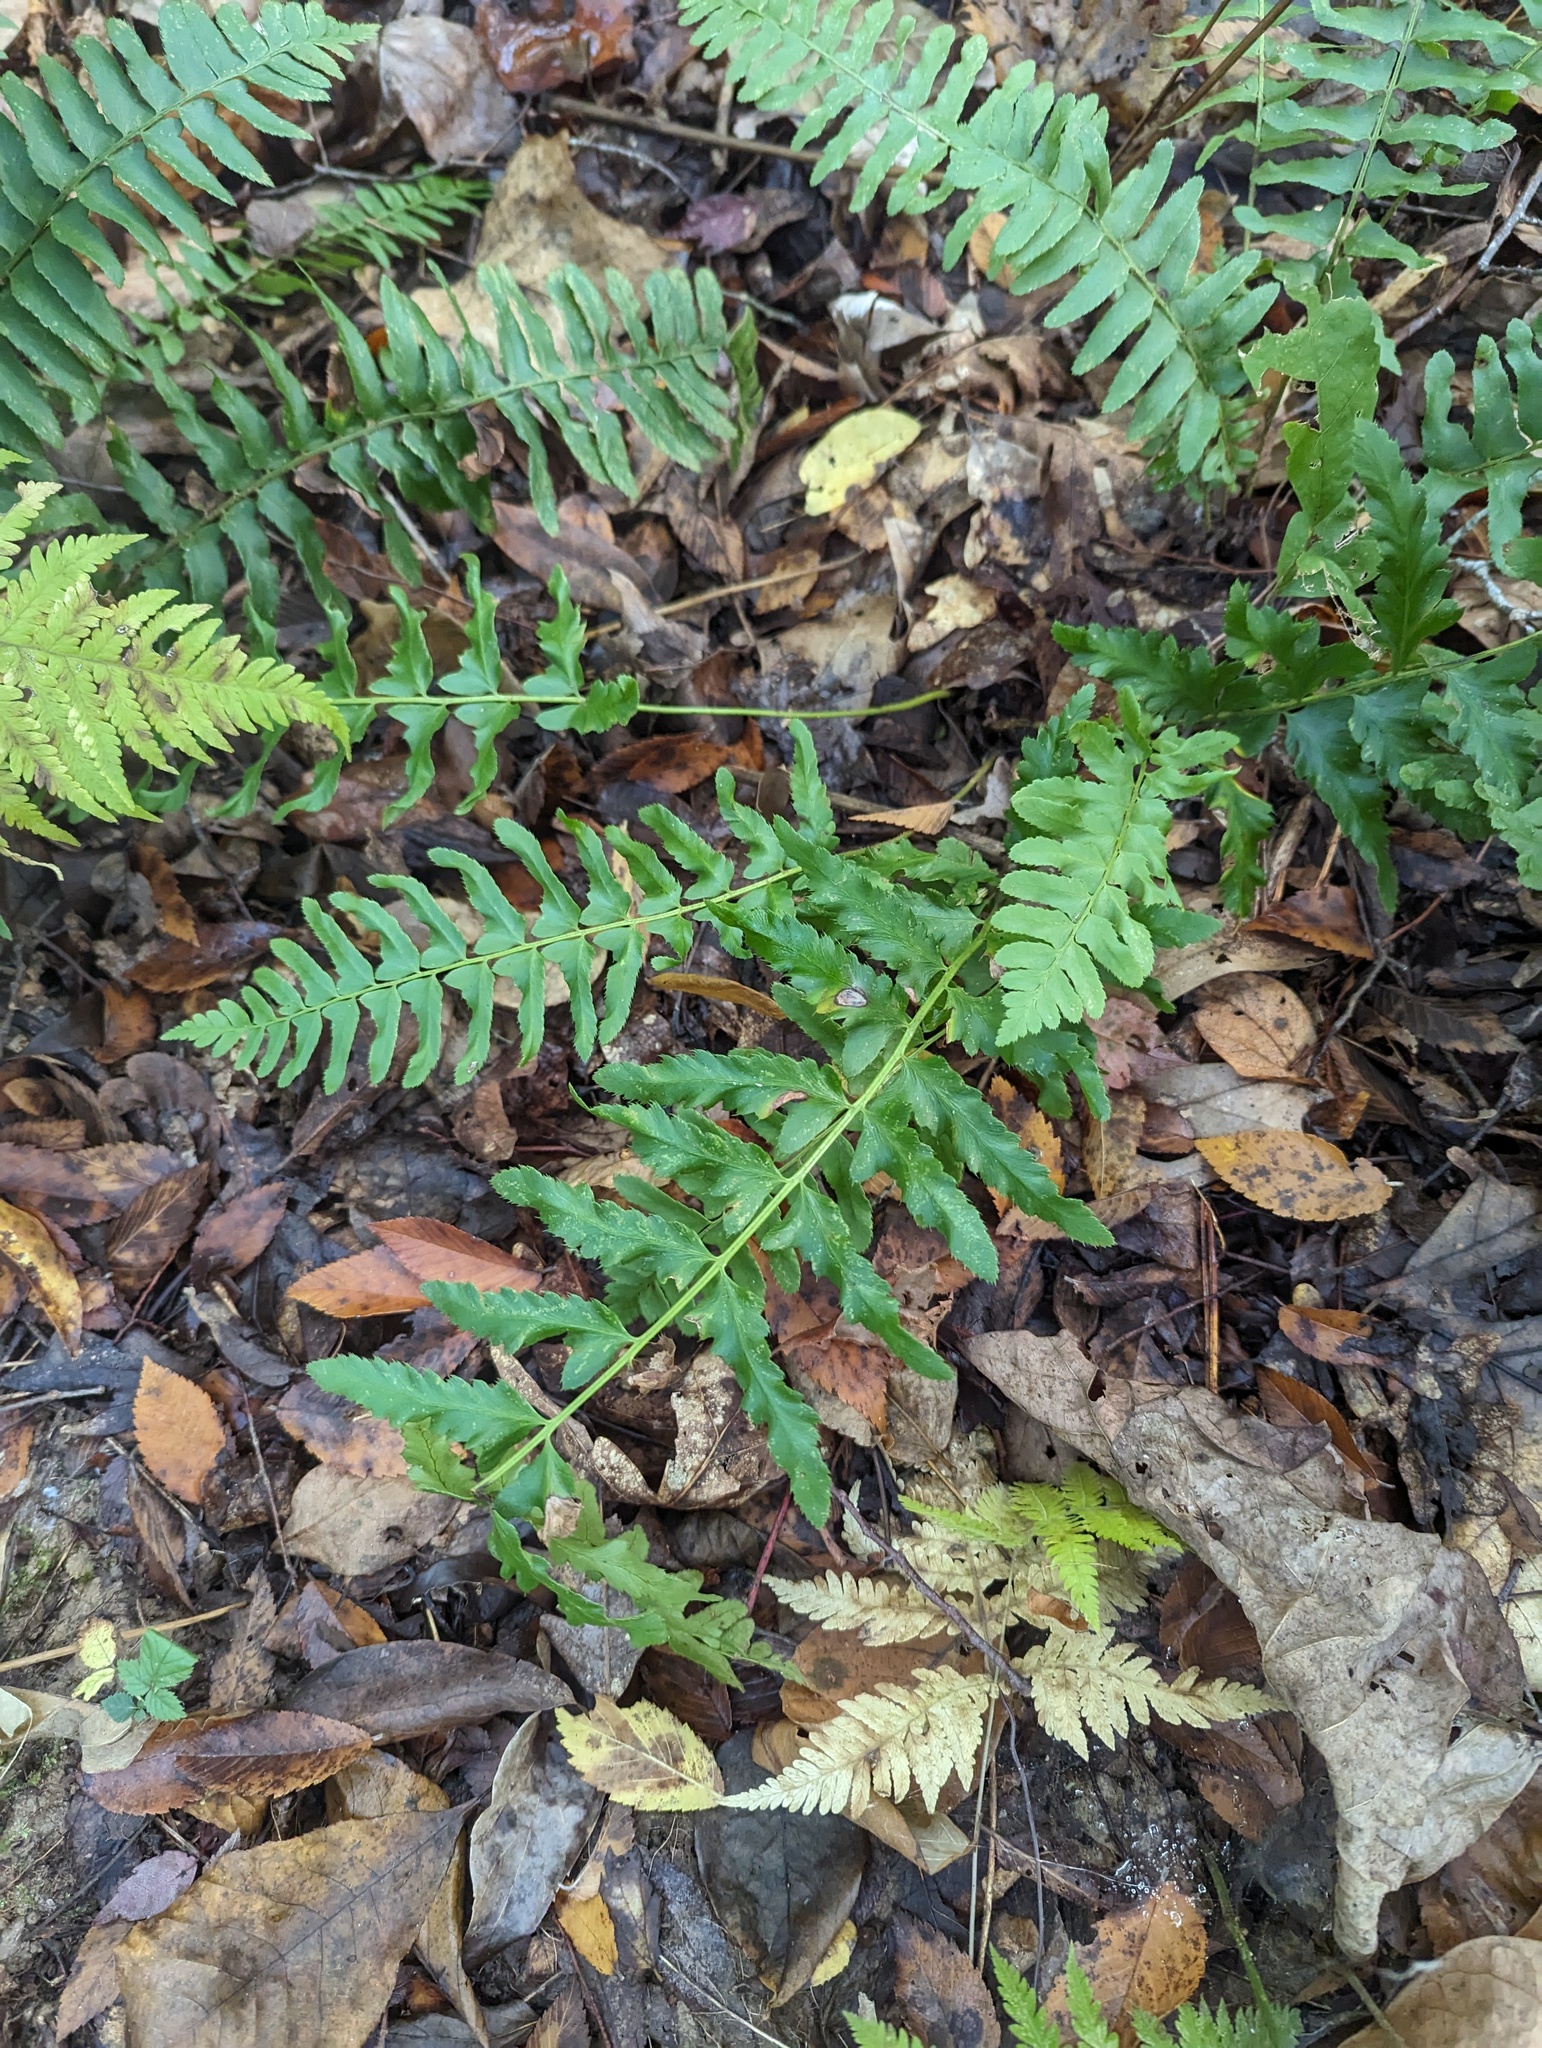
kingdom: Plantae
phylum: Tracheophyta
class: Polypodiopsida
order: Polypodiales
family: Dryopteridaceae
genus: Polystichum
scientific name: Polystichum acrostichoides
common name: Christmas fern
